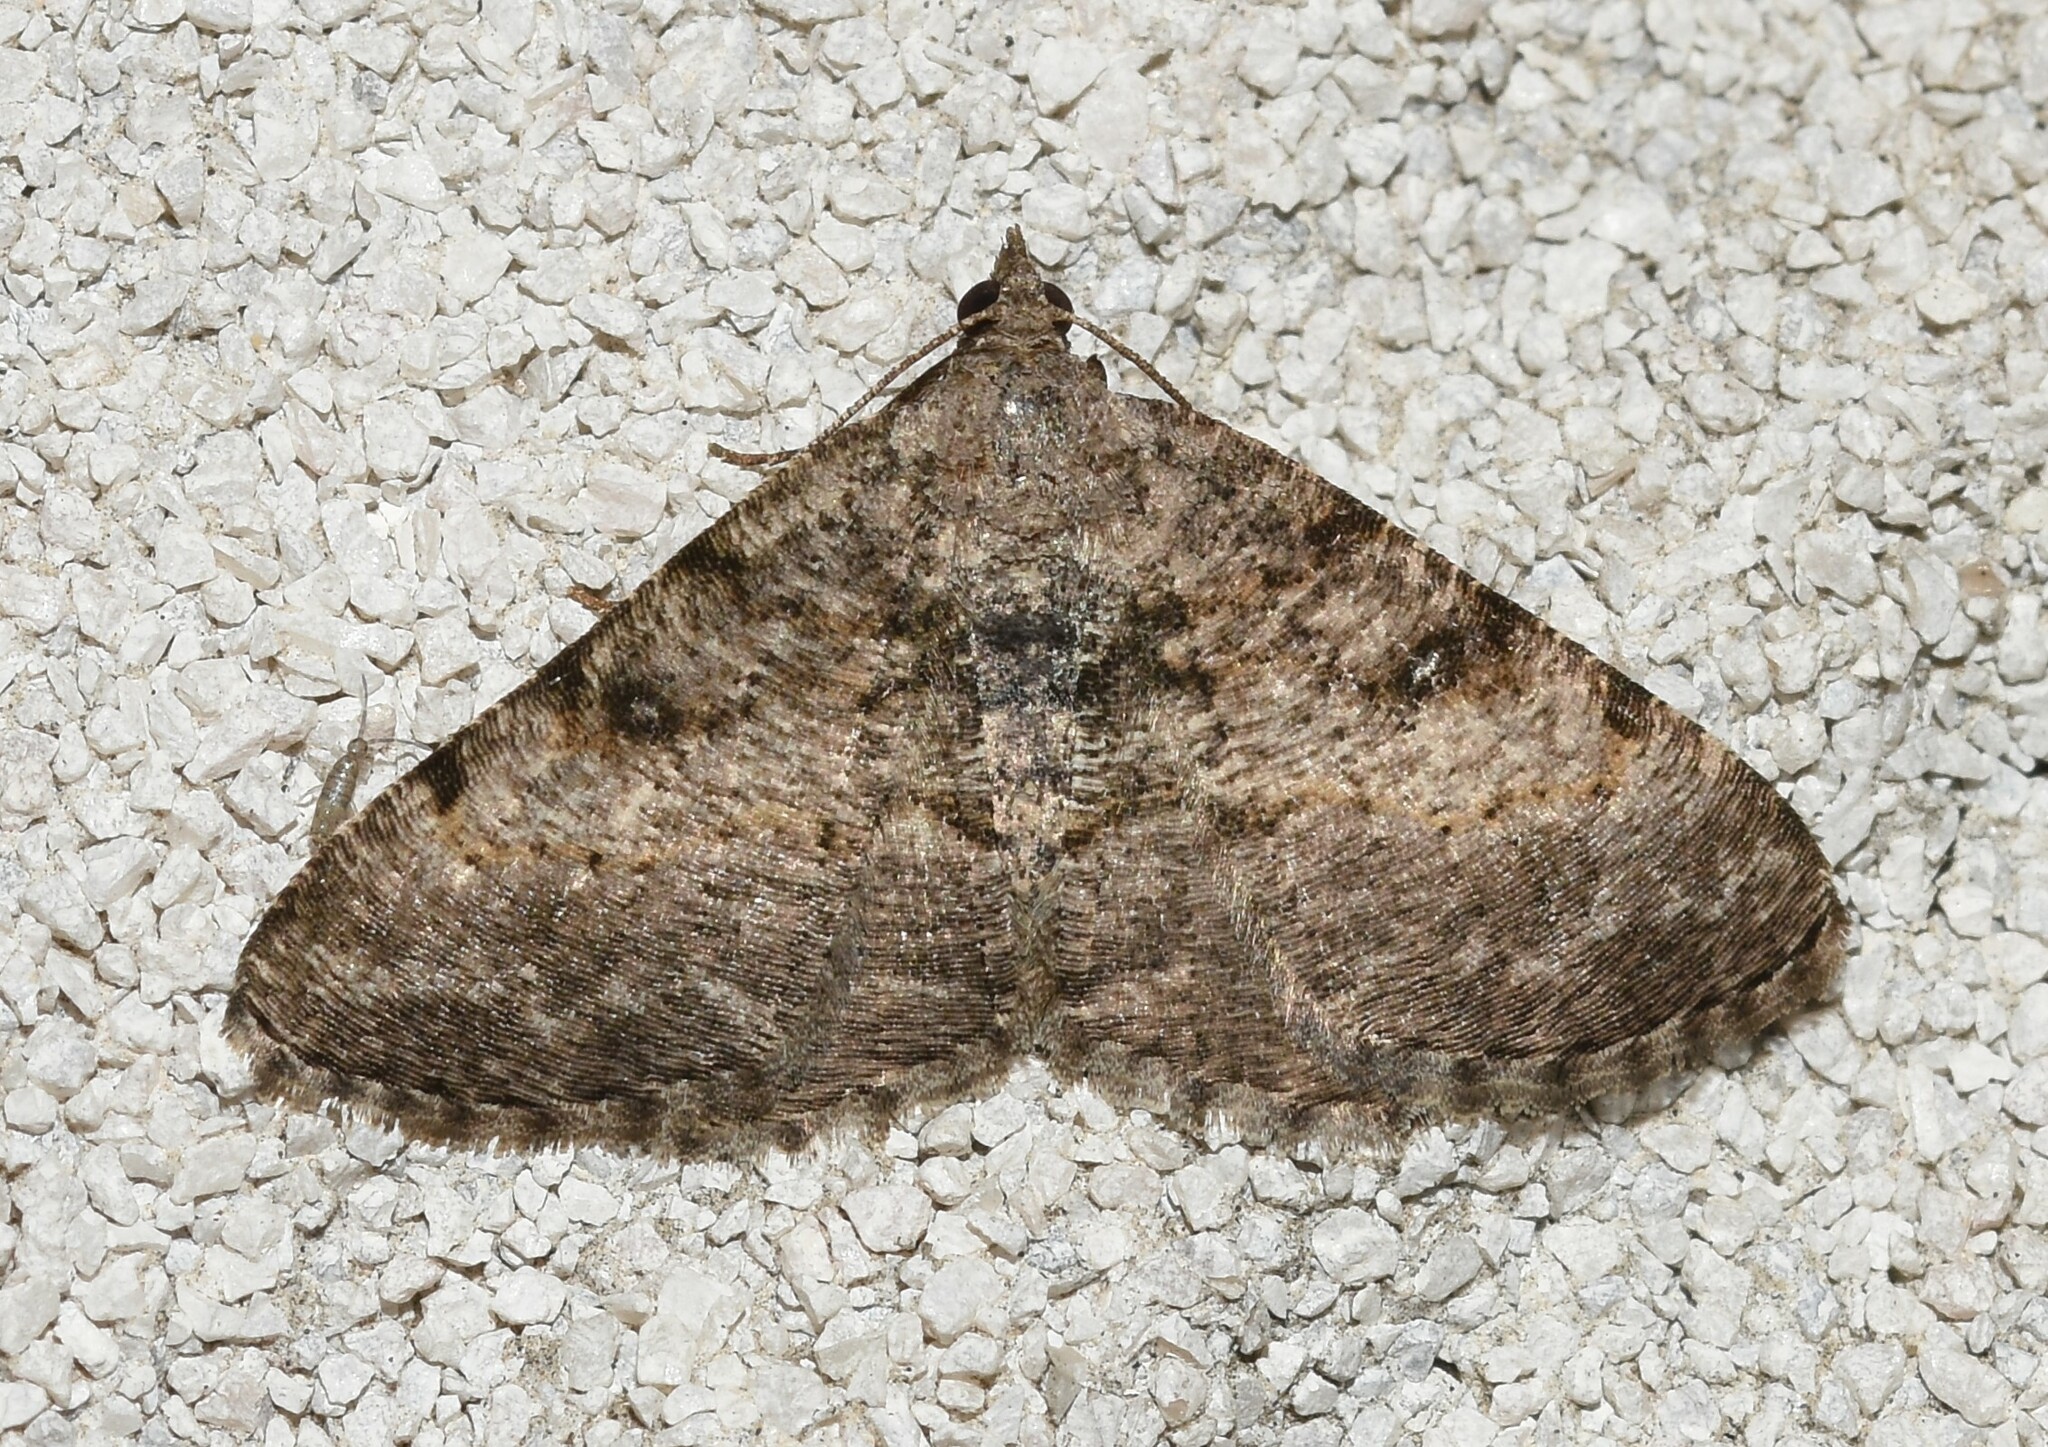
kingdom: Animalia
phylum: Arthropoda
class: Insecta
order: Lepidoptera
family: Geometridae
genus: Digrammia
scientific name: Digrammia gnophosaria
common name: Hollow-spotted angle
